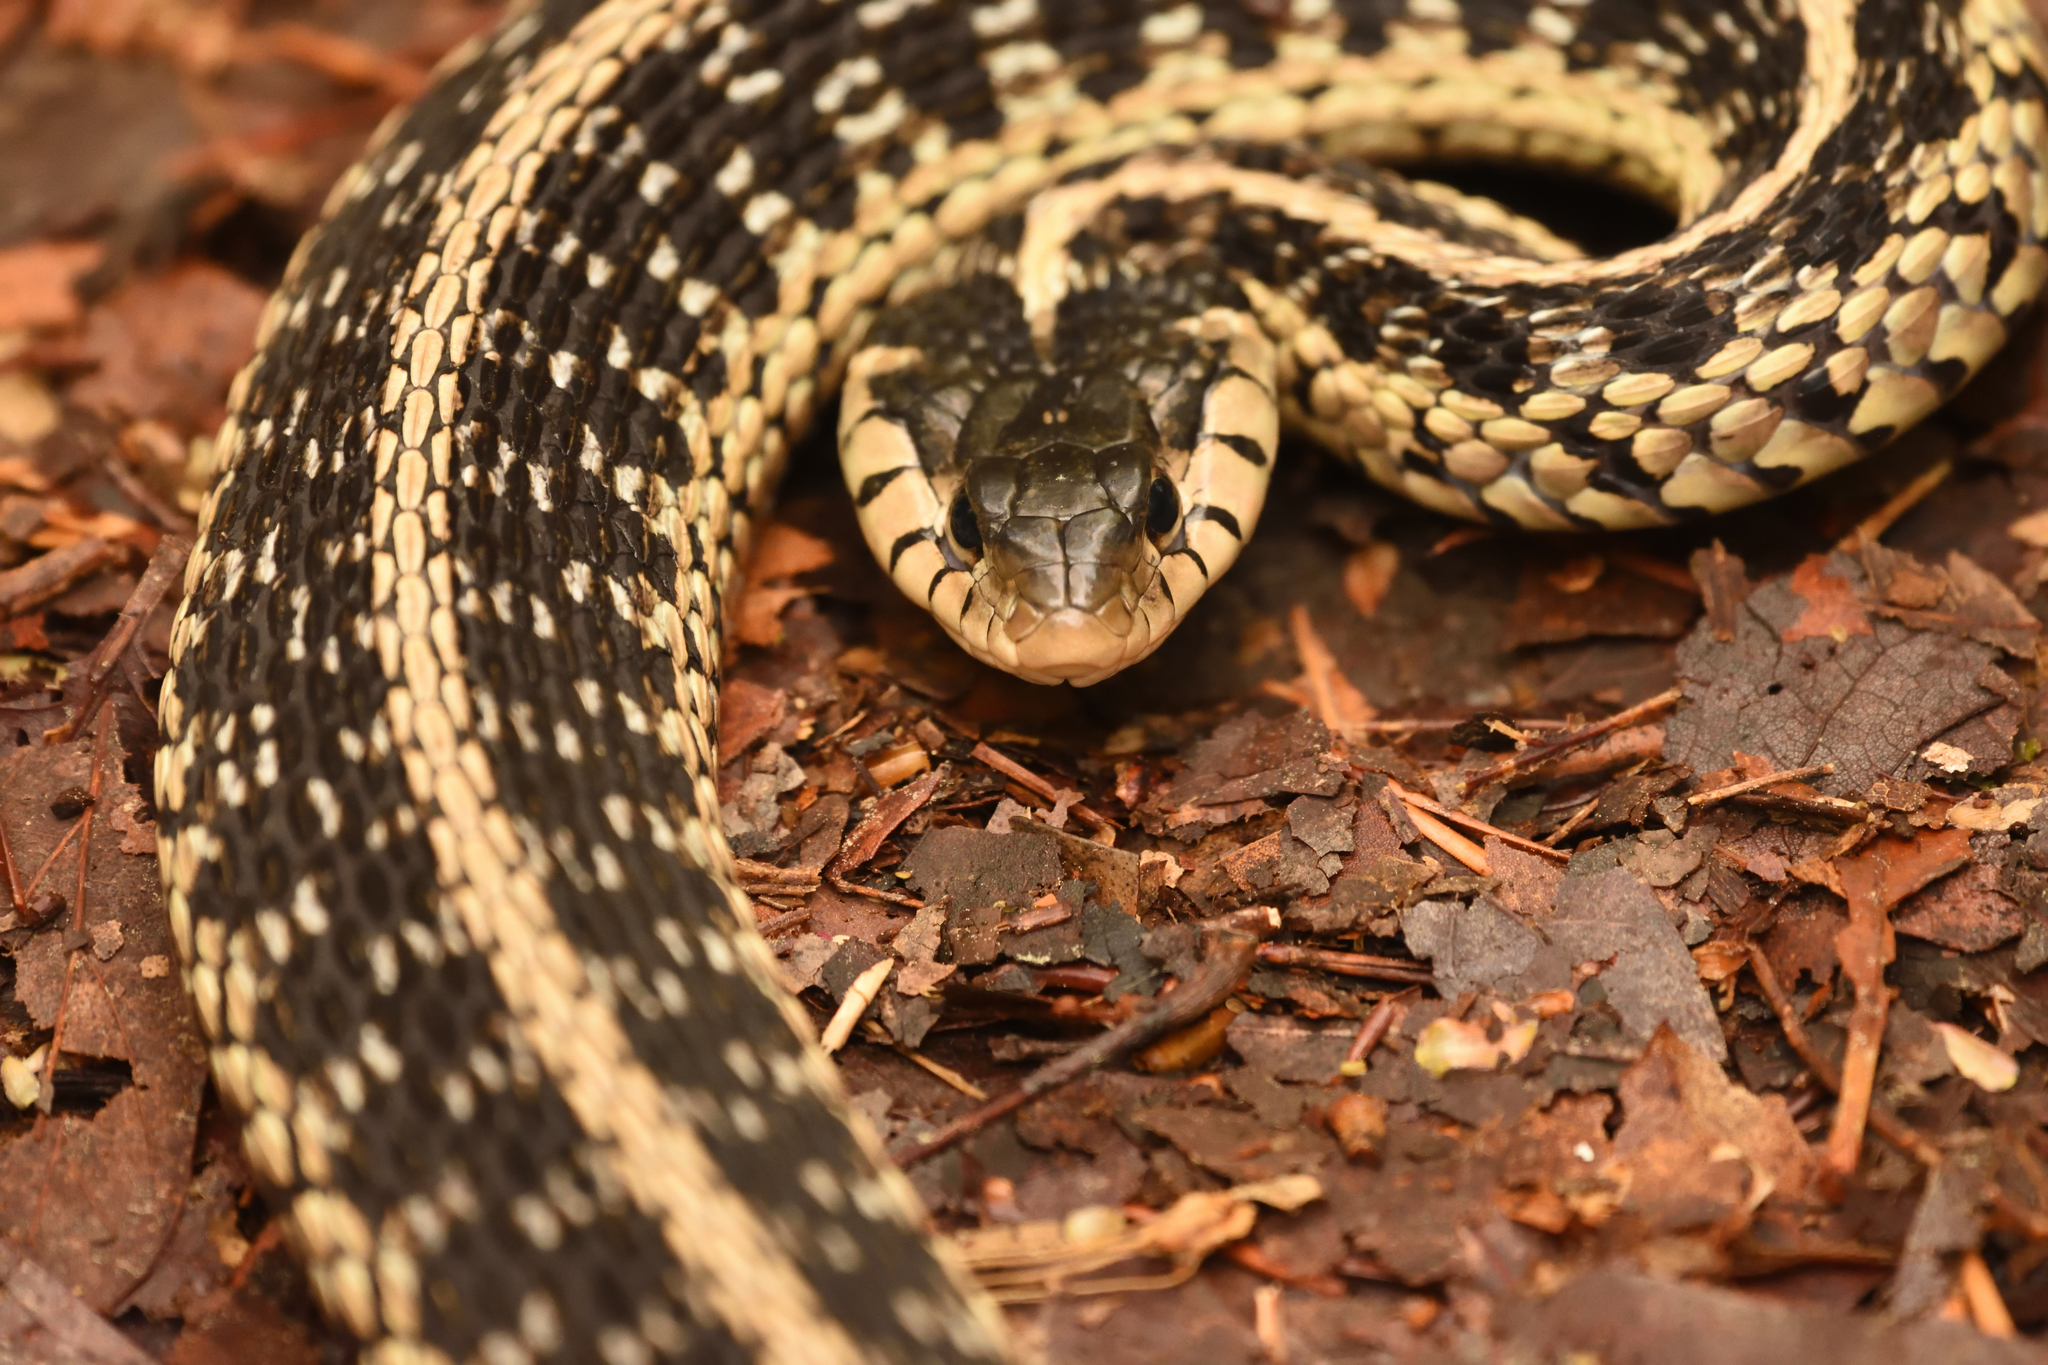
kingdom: Animalia
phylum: Chordata
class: Squamata
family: Colubridae
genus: Thamnophis
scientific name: Thamnophis sirtalis
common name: Common garter snake
